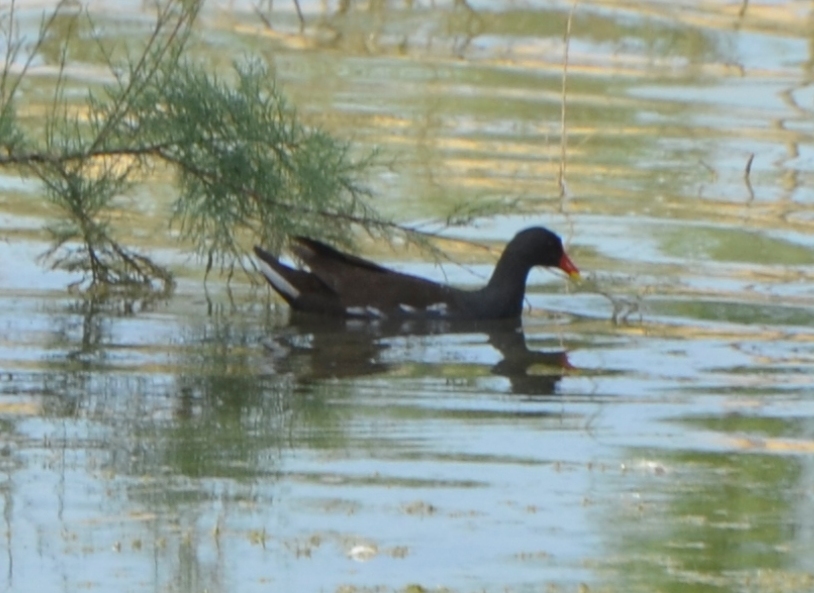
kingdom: Animalia
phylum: Chordata
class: Aves
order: Gruiformes
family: Rallidae
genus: Gallinula
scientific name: Gallinula chloropus
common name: Common moorhen
